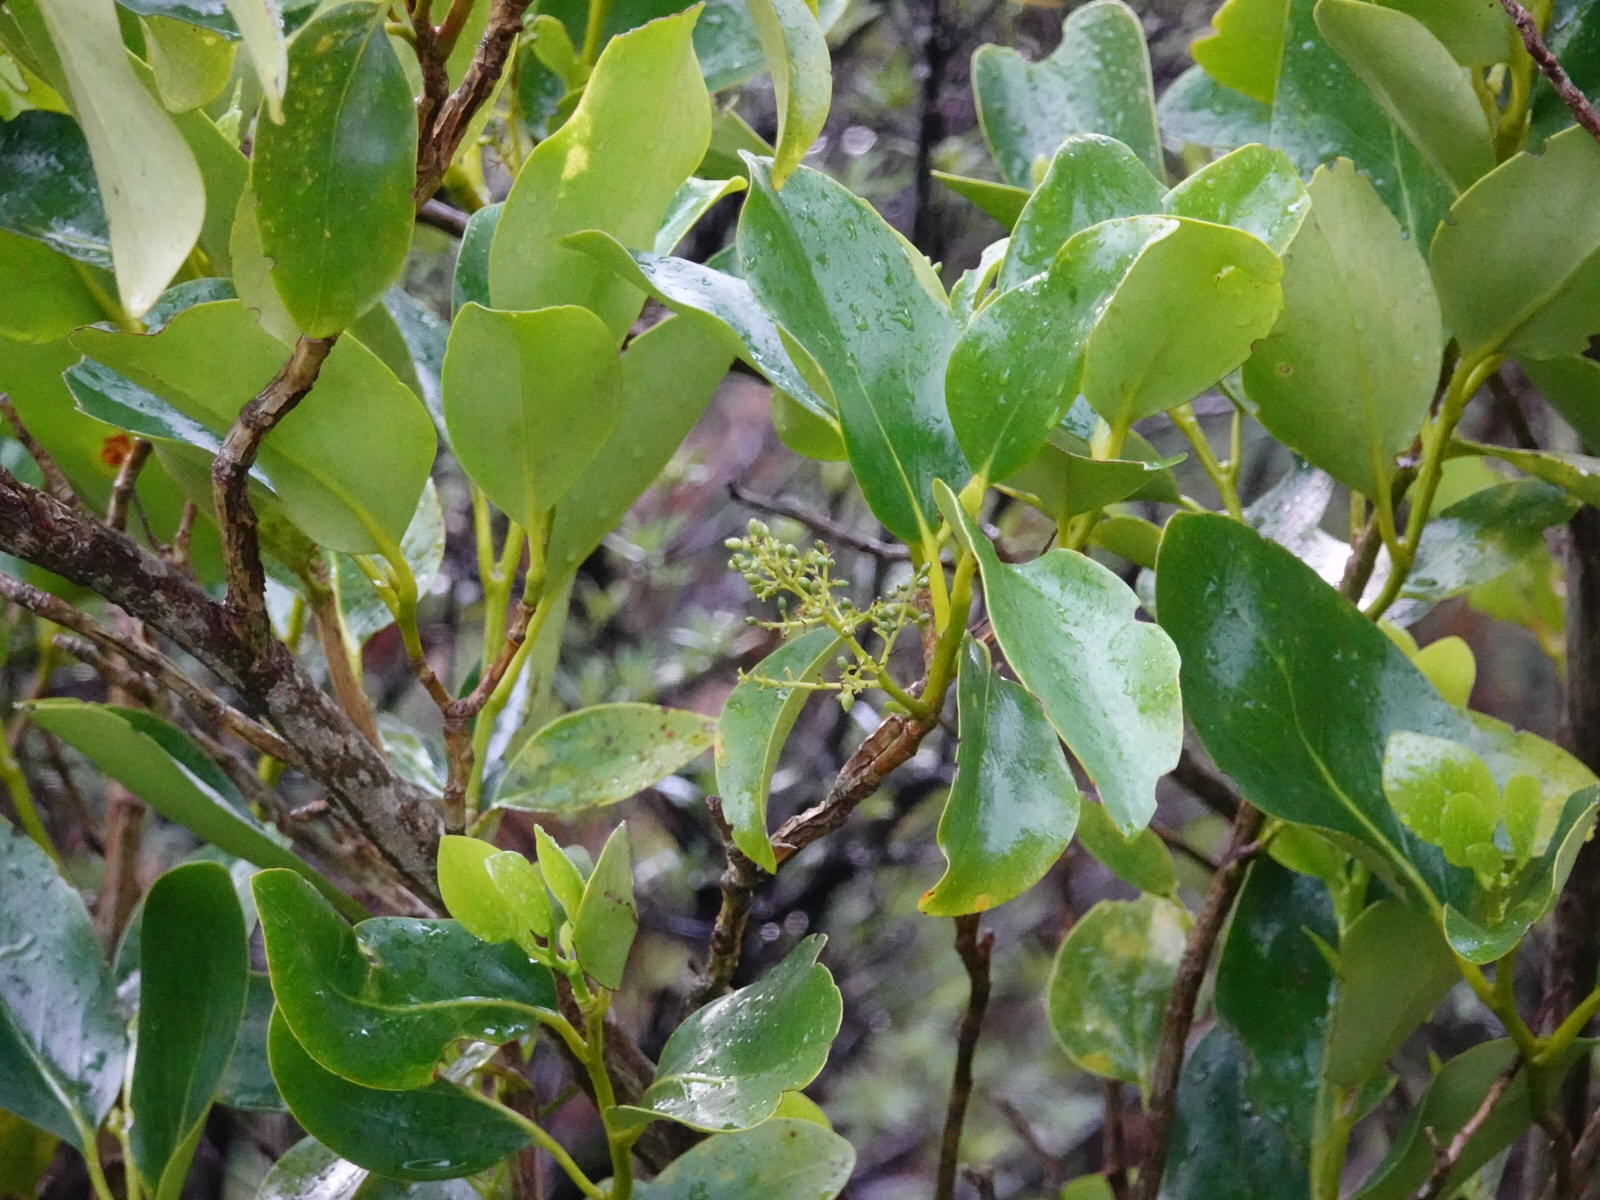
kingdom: Plantae
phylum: Tracheophyta
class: Magnoliopsida
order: Apiales
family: Griseliniaceae
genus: Griselinia
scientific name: Griselinia littoralis
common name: New zealand broadleaf
